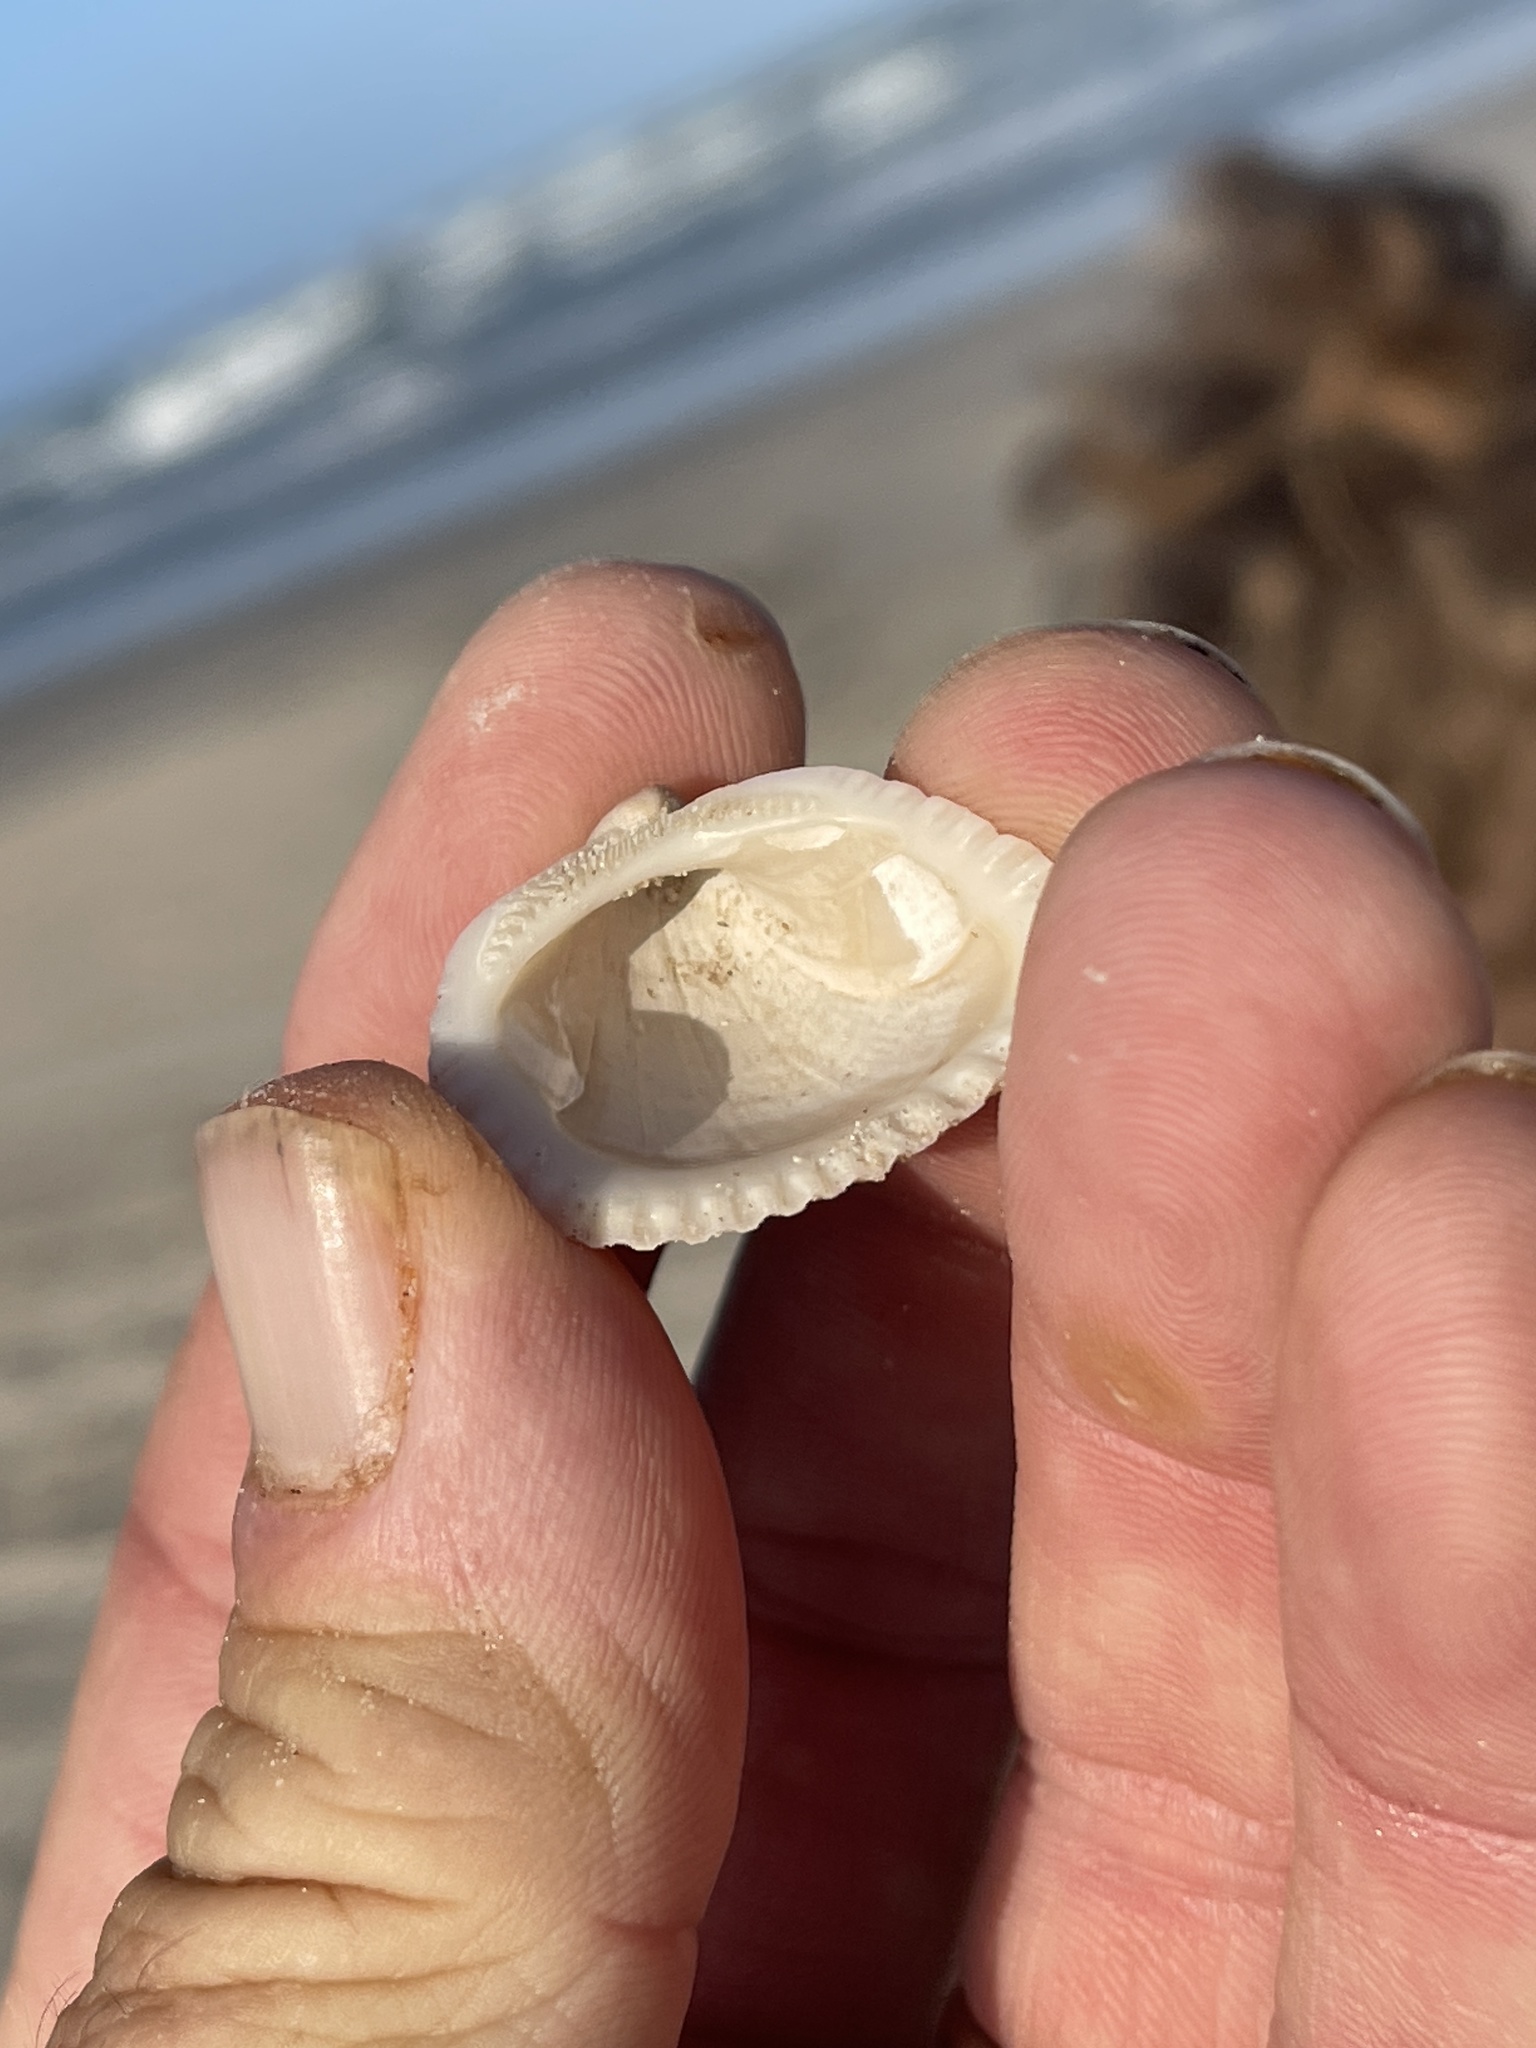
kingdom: Animalia
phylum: Mollusca
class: Bivalvia
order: Arcida
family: Noetiidae
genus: Noetia
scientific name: Noetia ponderosa
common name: Ponderous ark
